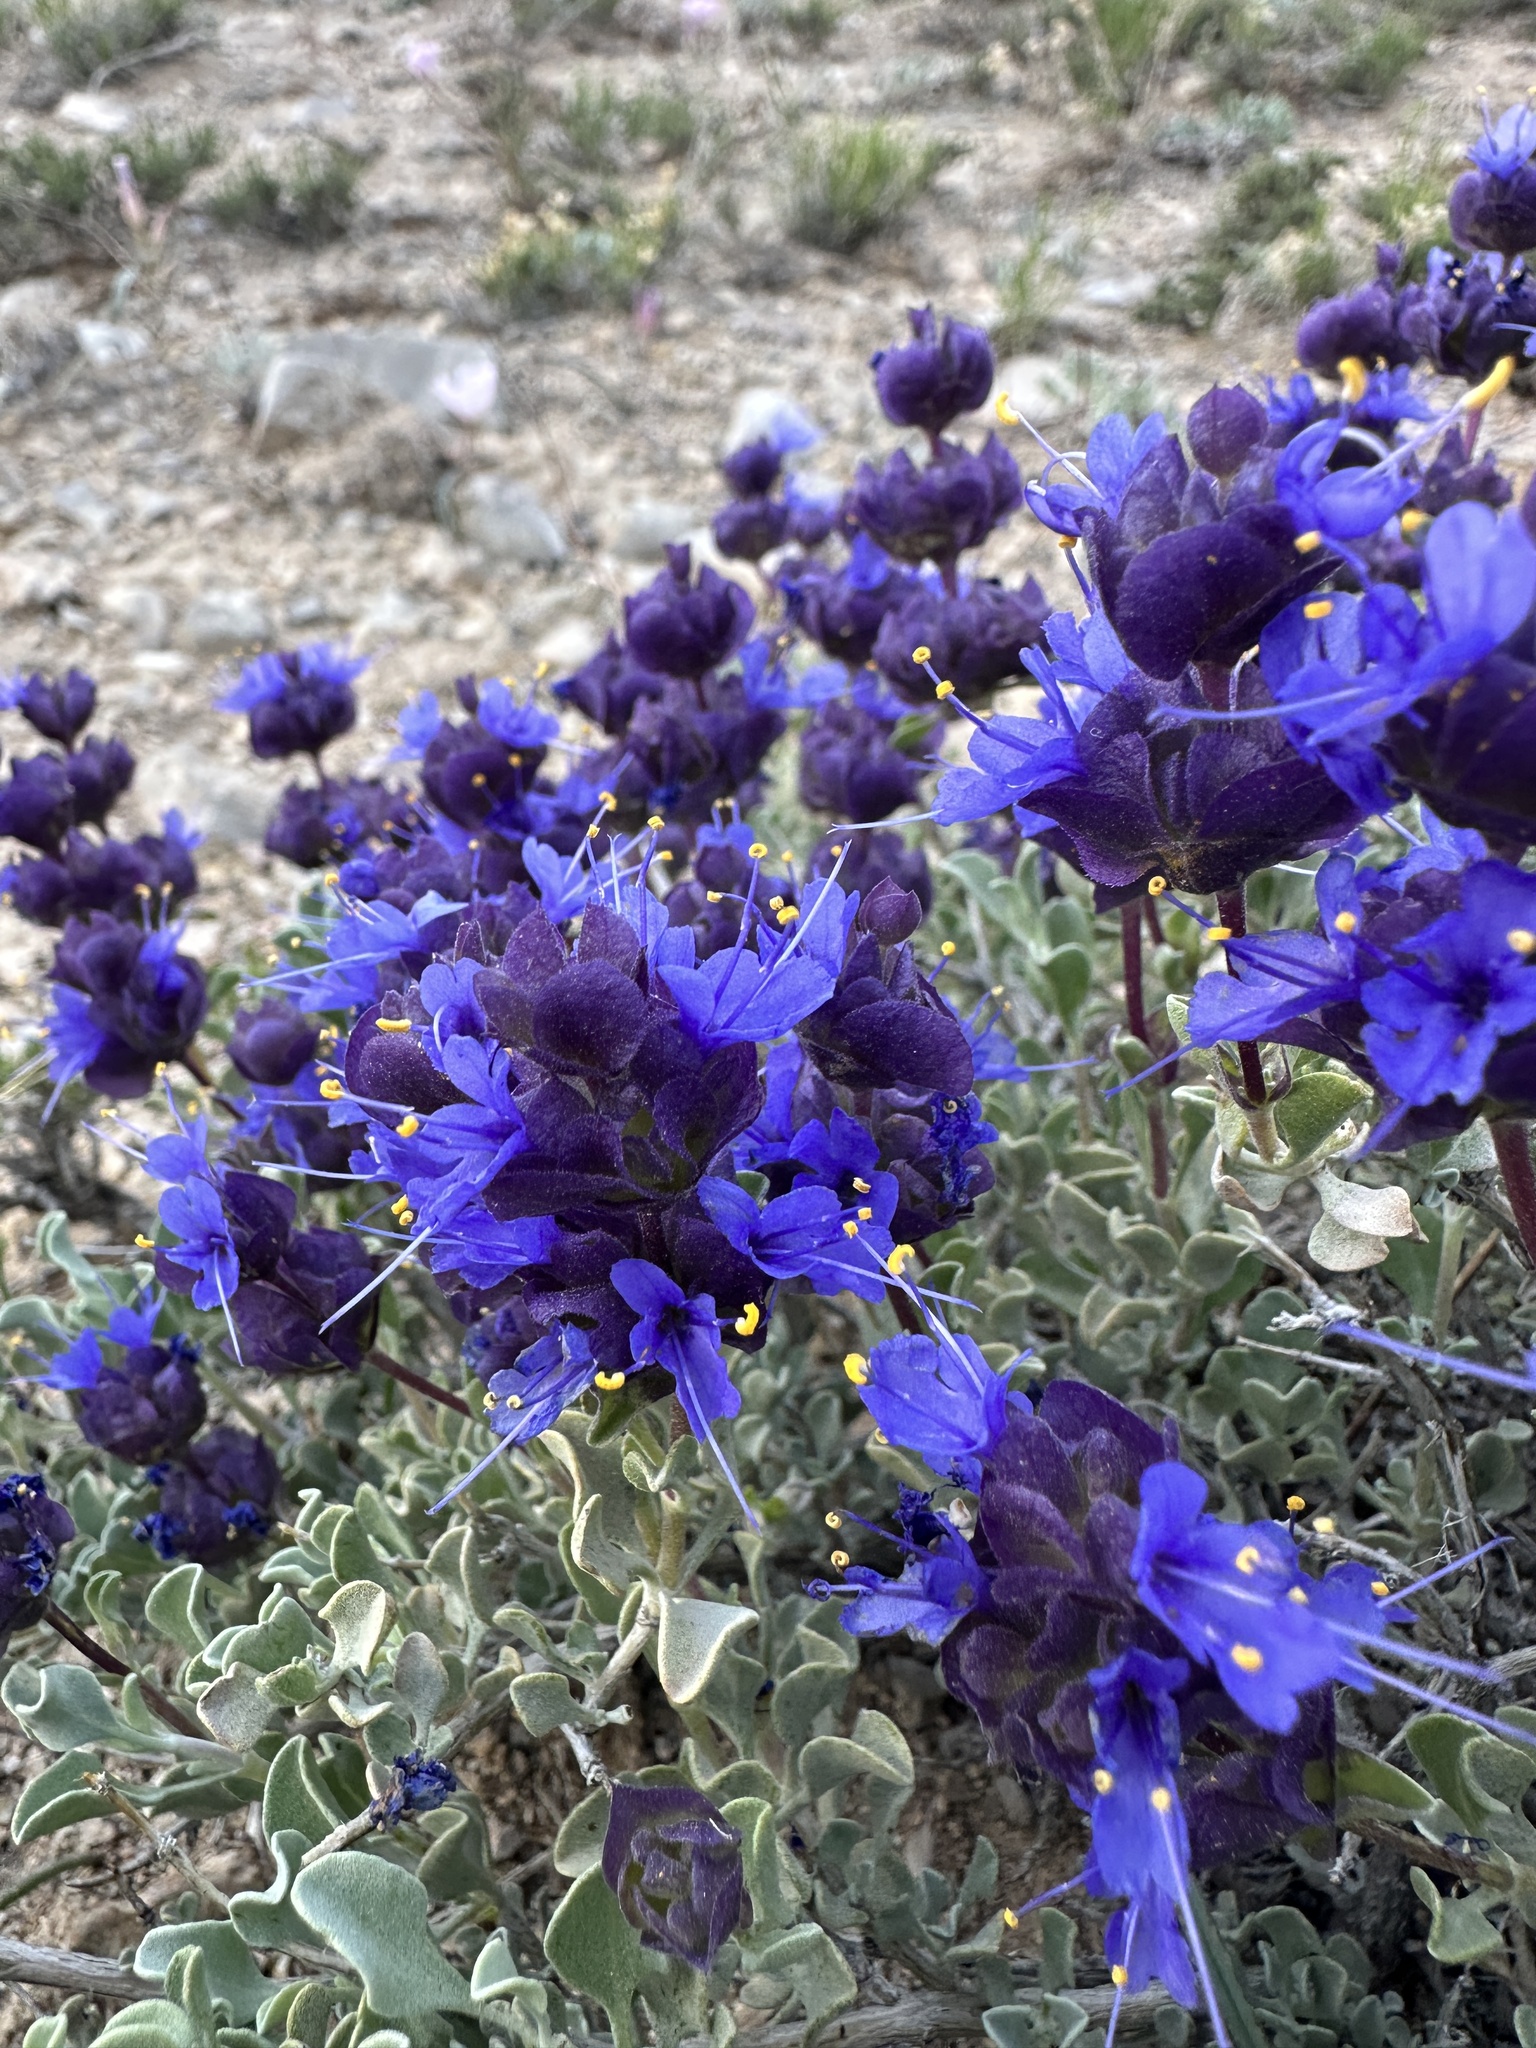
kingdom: Plantae
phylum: Tracheophyta
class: Magnoliopsida
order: Lamiales
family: Lamiaceae
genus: Salvia
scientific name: Salvia dorrii
